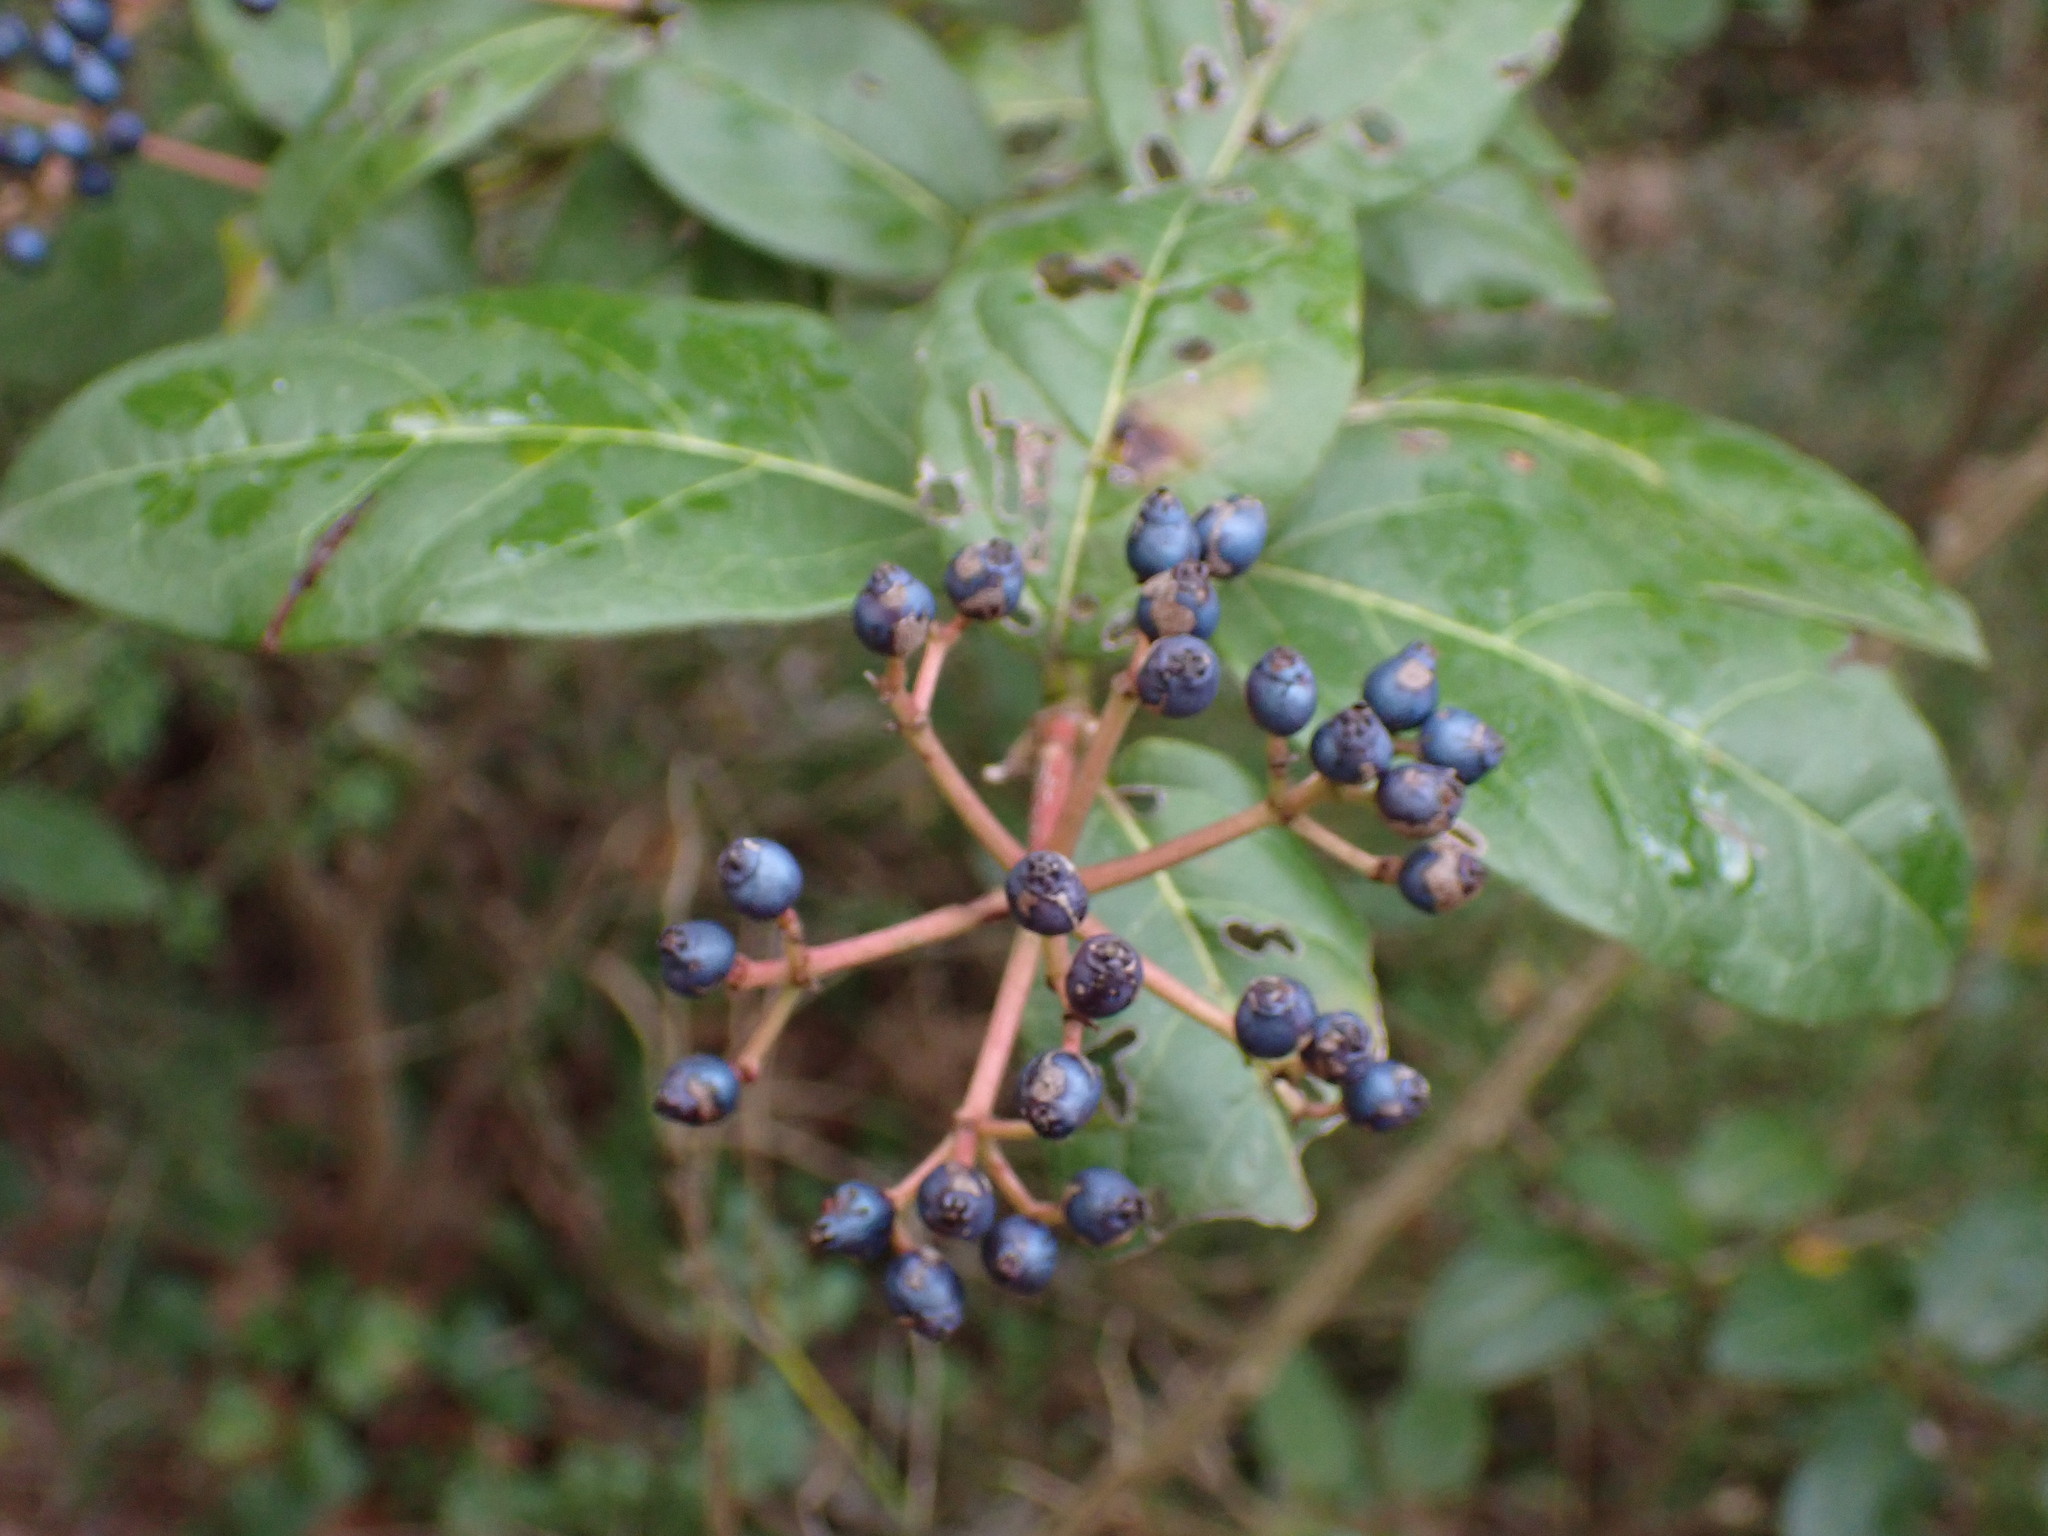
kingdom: Plantae
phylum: Tracheophyta
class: Magnoliopsida
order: Dipsacales
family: Viburnaceae
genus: Viburnum
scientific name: Viburnum tinus
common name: Laurustinus
